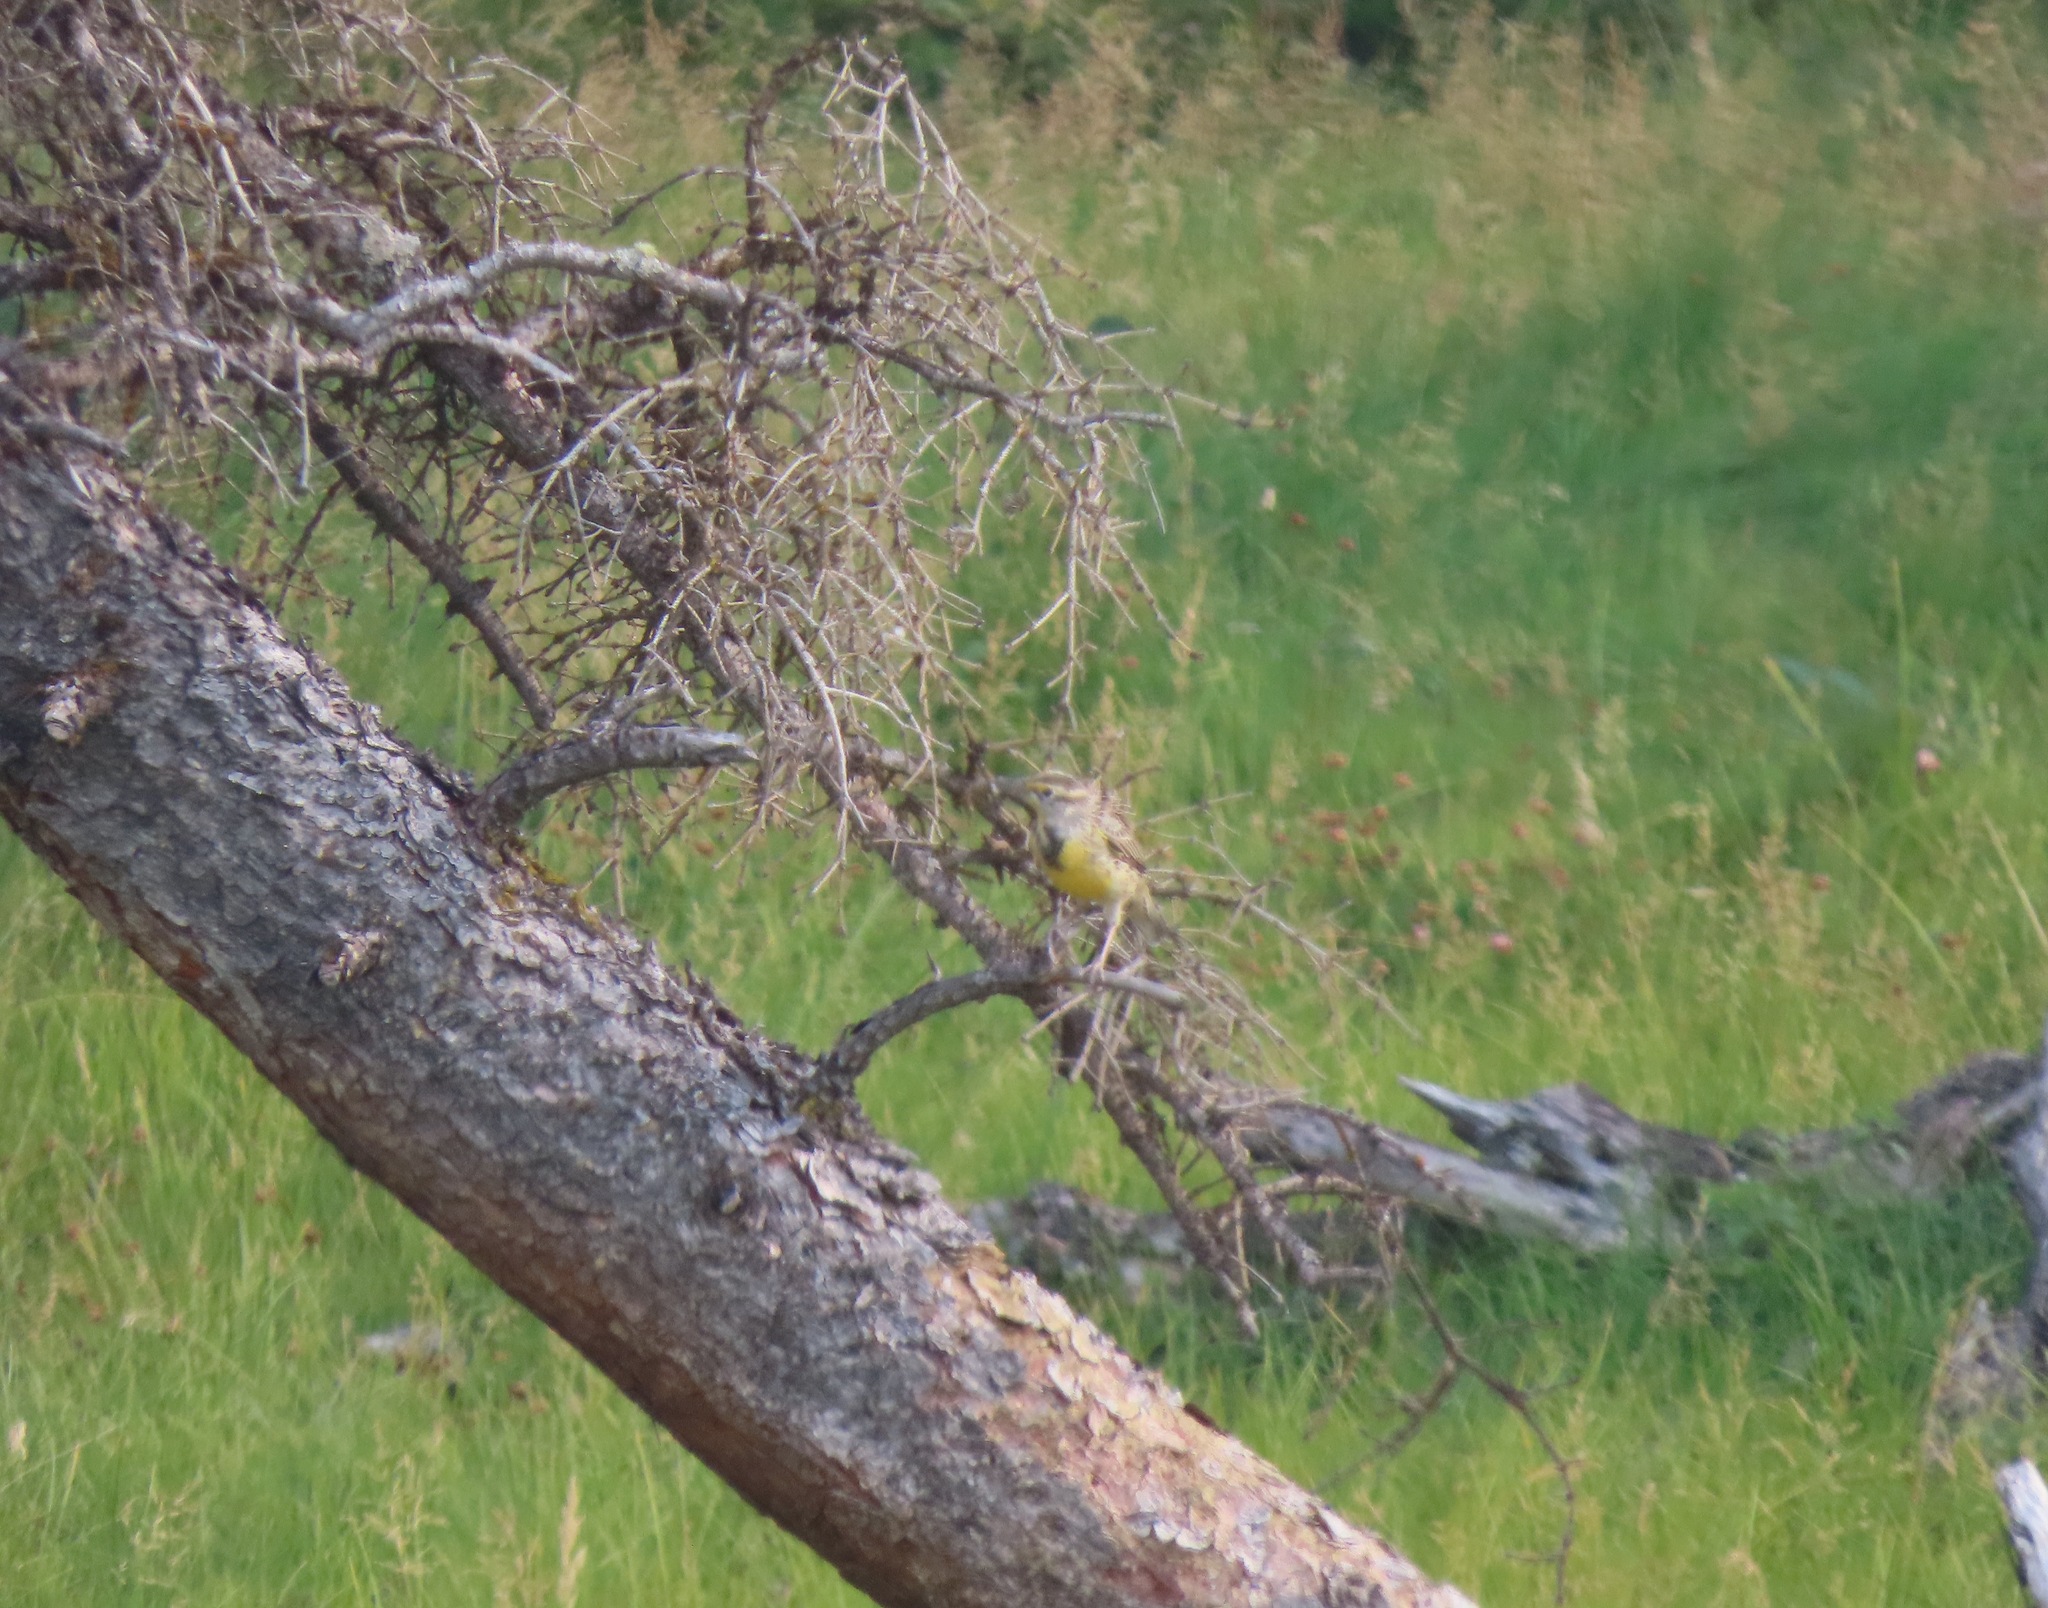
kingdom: Animalia
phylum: Chordata
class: Aves
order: Passeriformes
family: Icteridae
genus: Sturnella
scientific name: Sturnella neglecta
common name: Western meadowlark
